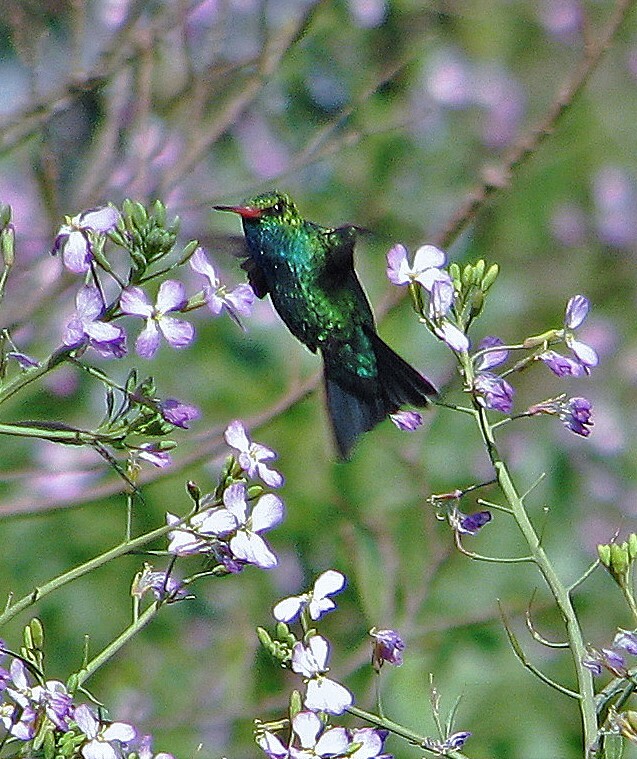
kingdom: Animalia
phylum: Chordata
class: Aves
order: Apodiformes
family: Trochilidae
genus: Chlorostilbon
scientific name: Chlorostilbon lucidus
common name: Glittering-bellied emerald
